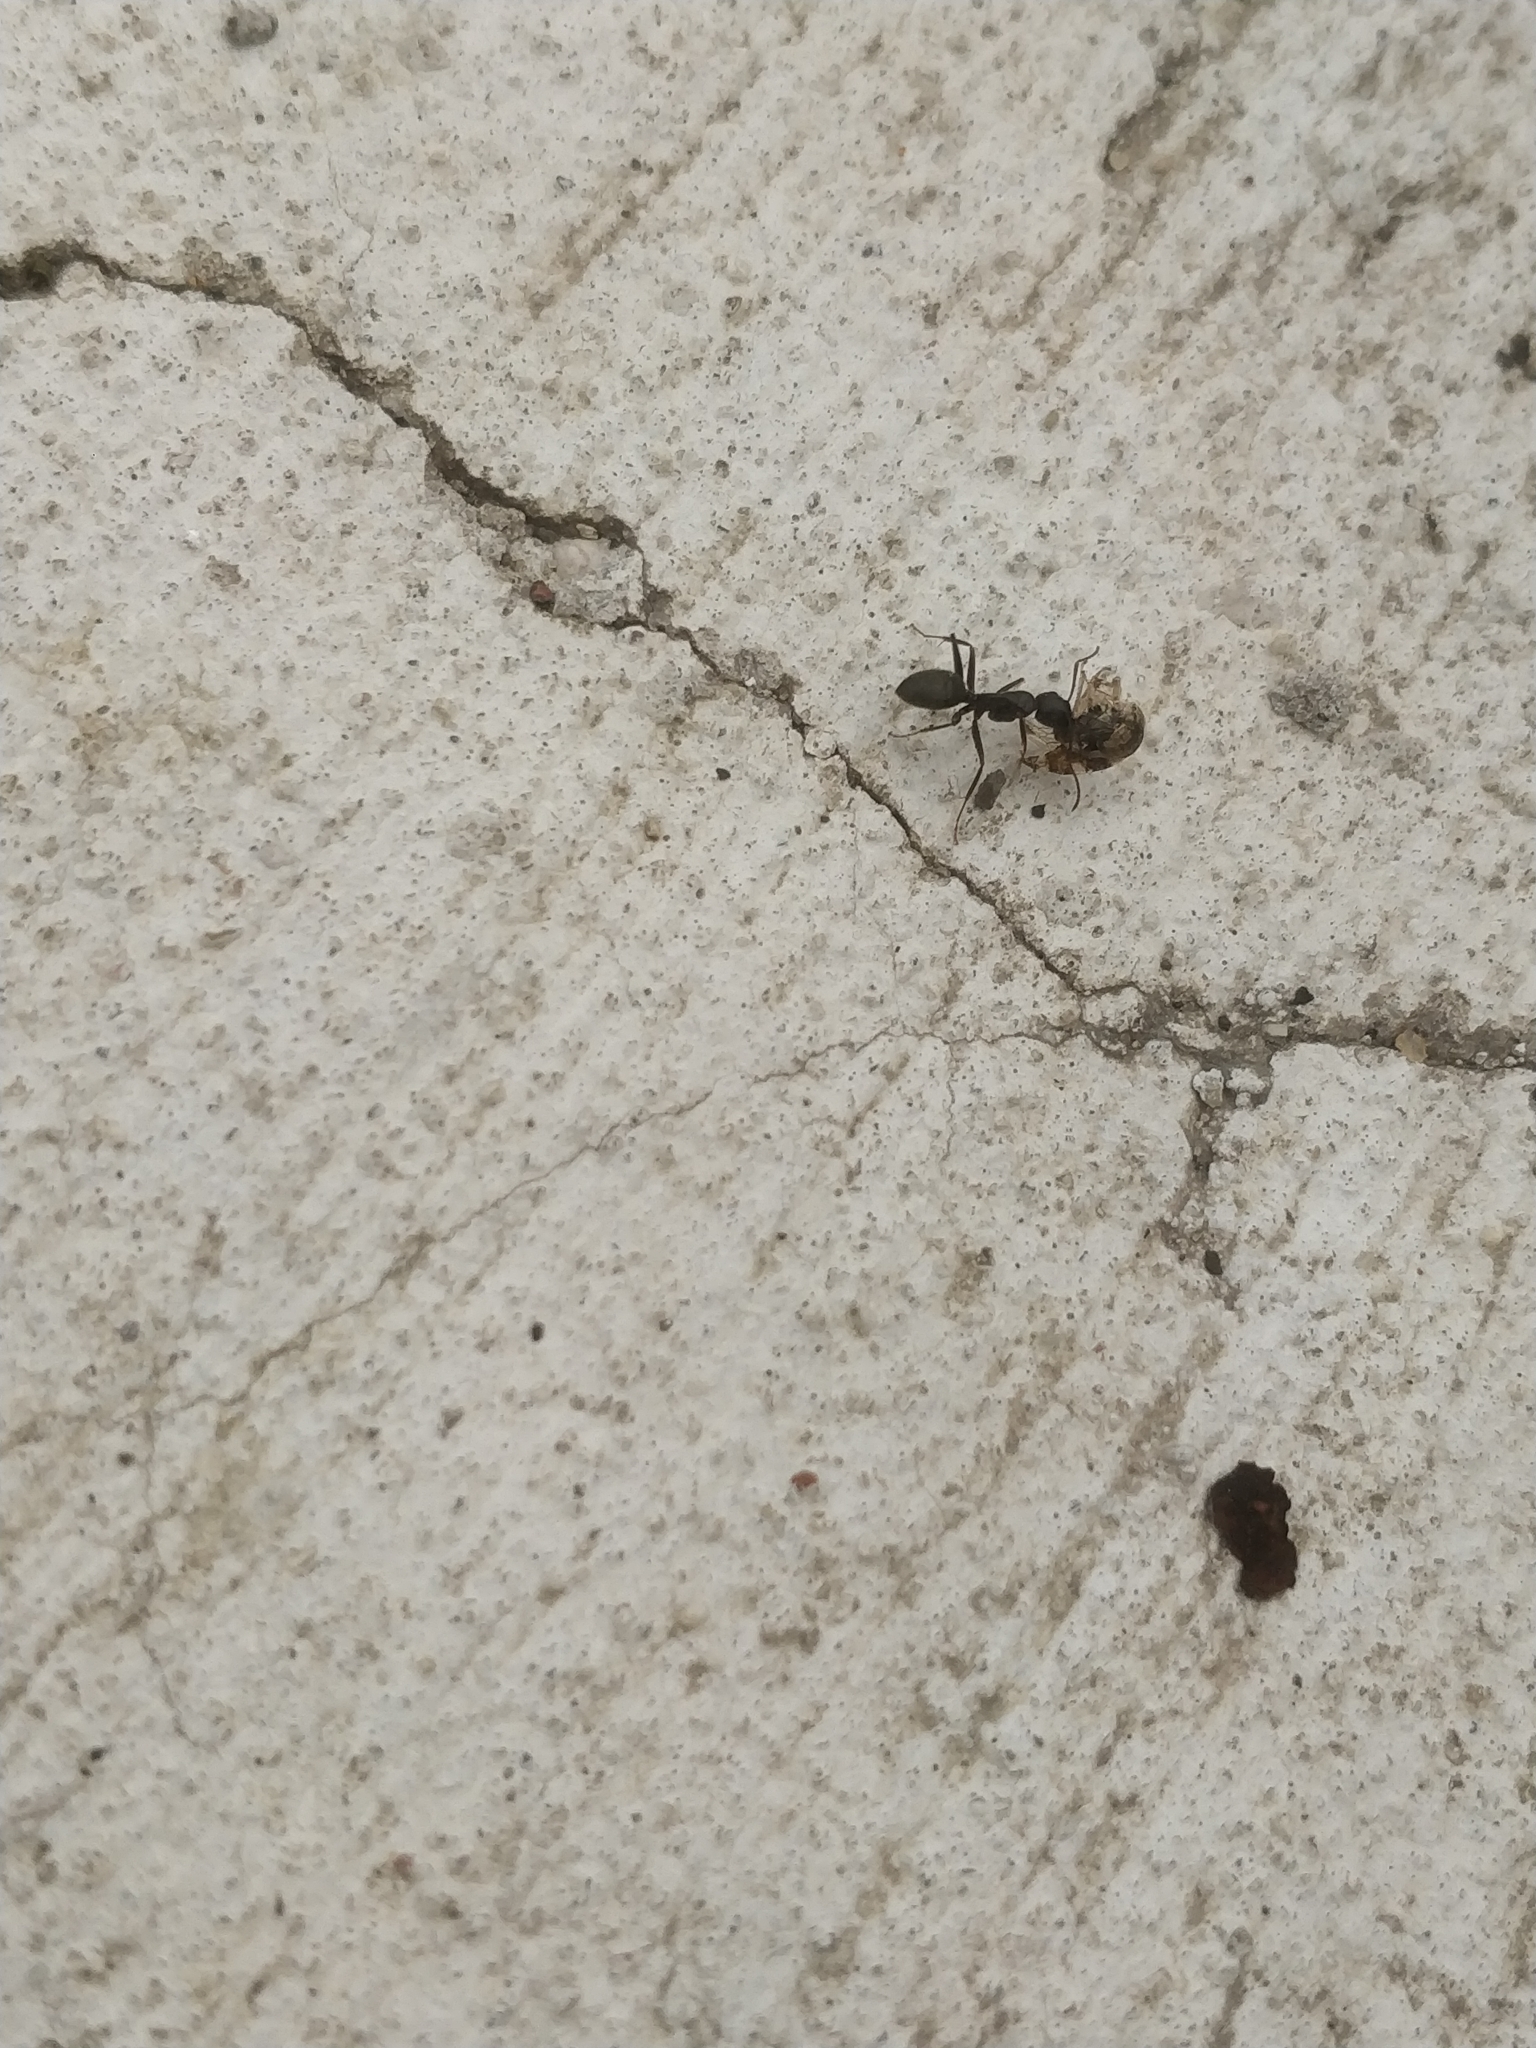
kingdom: Animalia
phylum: Arthropoda
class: Insecta
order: Hymenoptera
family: Formicidae
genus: Camponotus
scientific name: Camponotus pennsylvanicus
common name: Black carpenter ant
